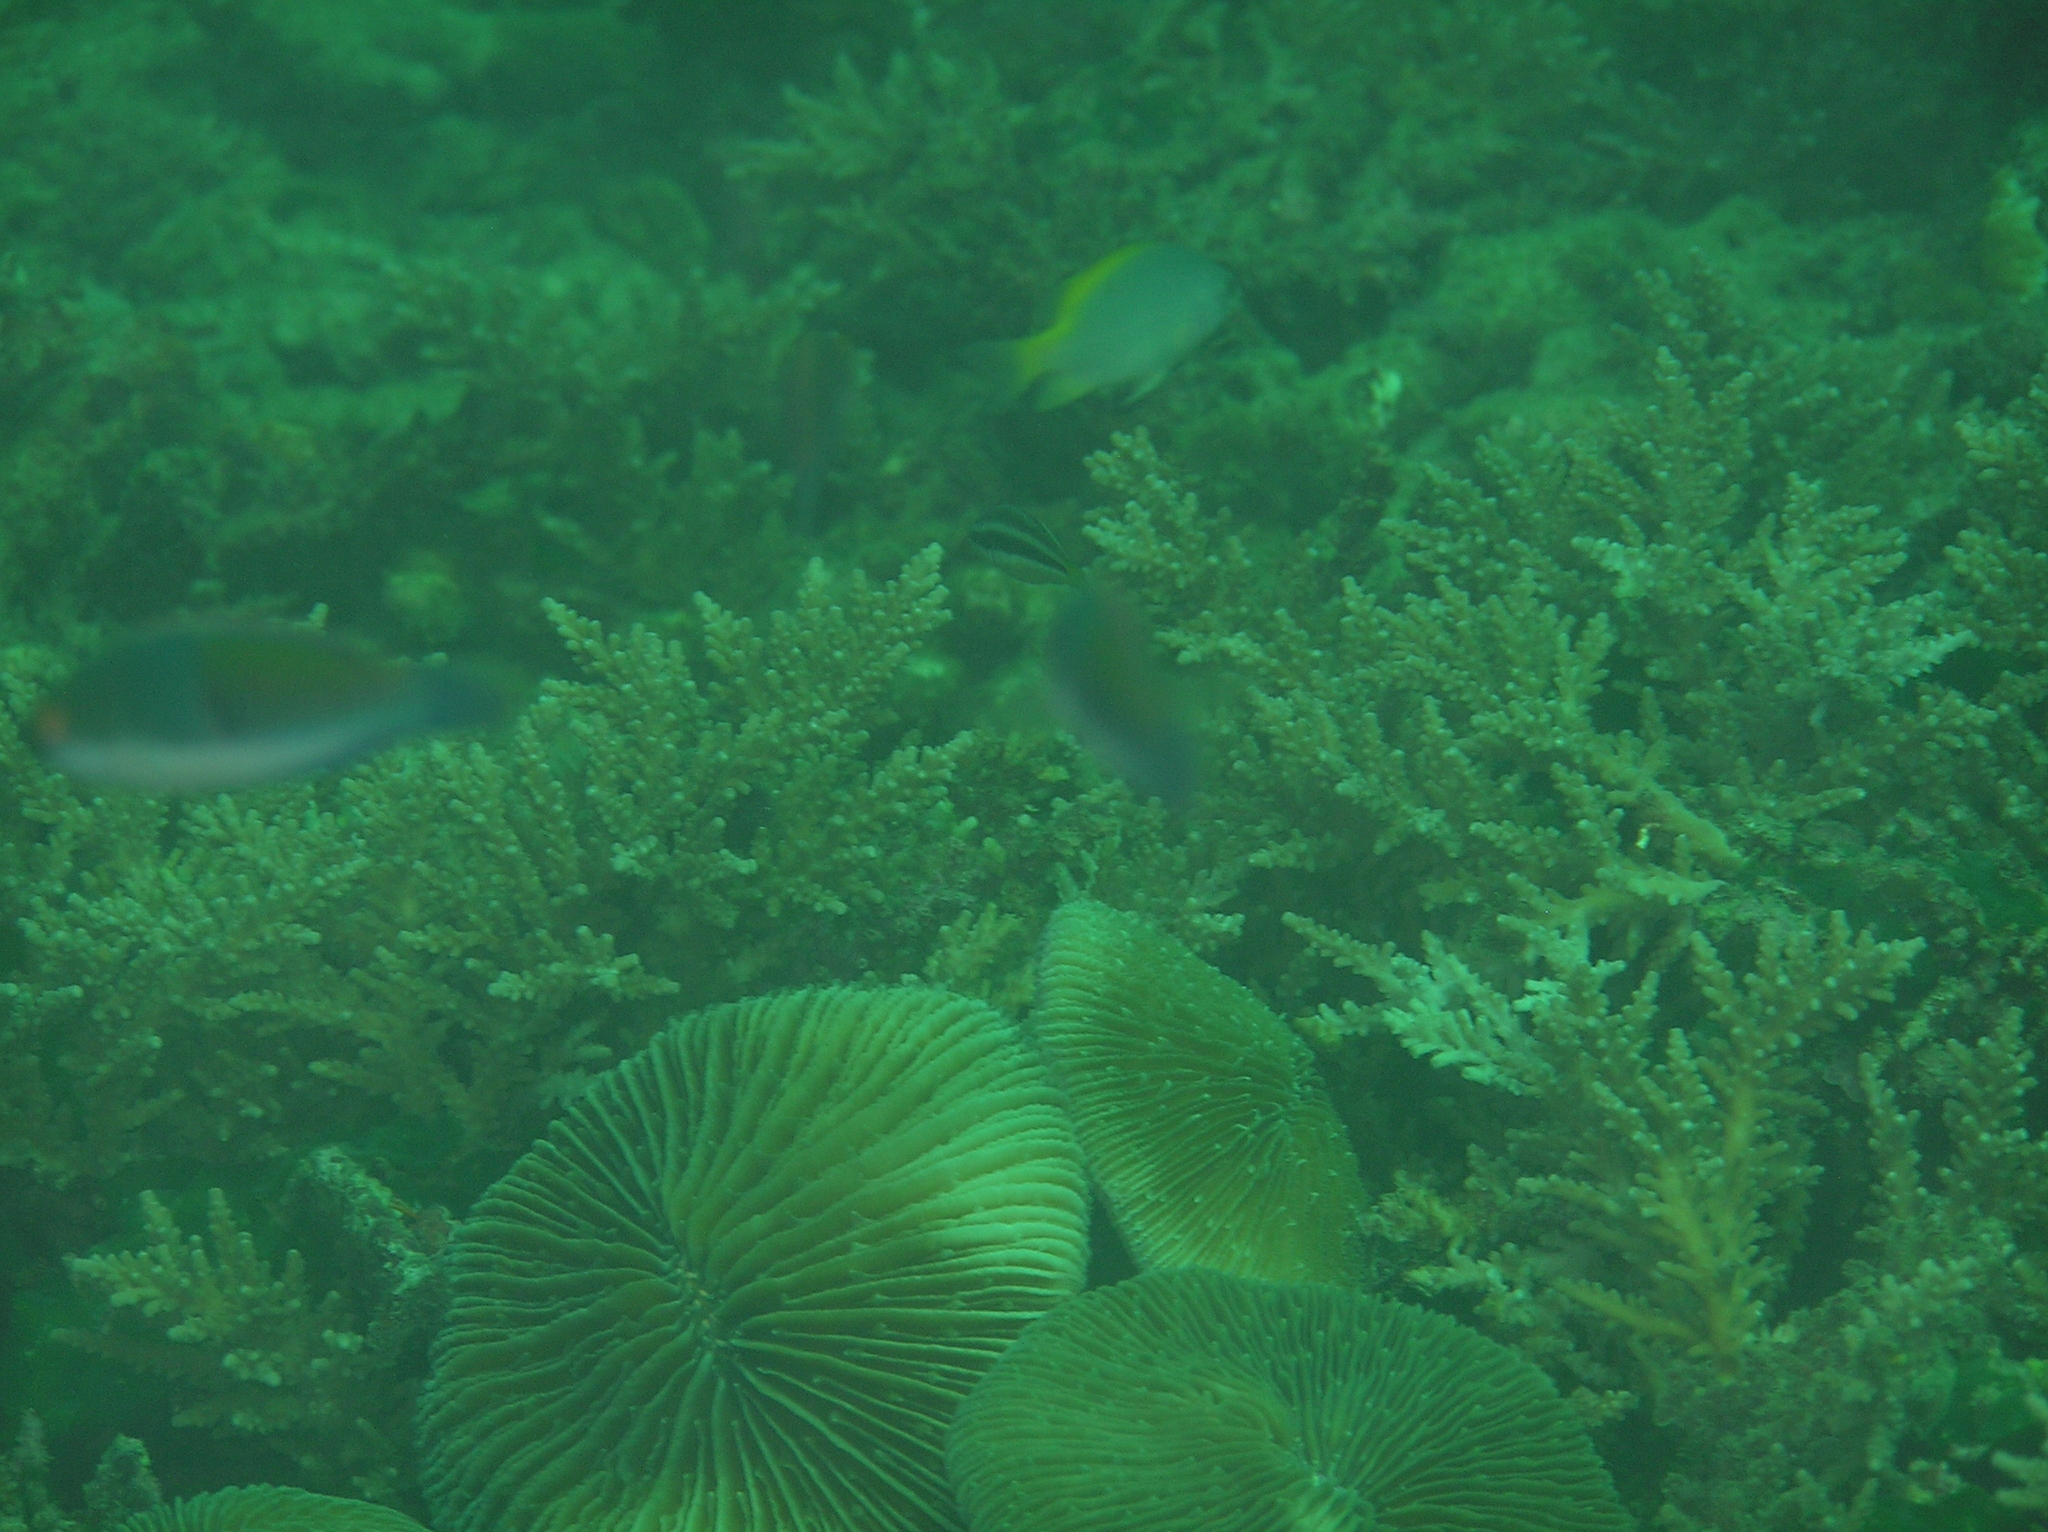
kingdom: Animalia
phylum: Chordata
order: Perciformes
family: Labridae
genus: Cirrhilabrus
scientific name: Cirrhilabrus cyanopleura
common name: Coralline wrasse
